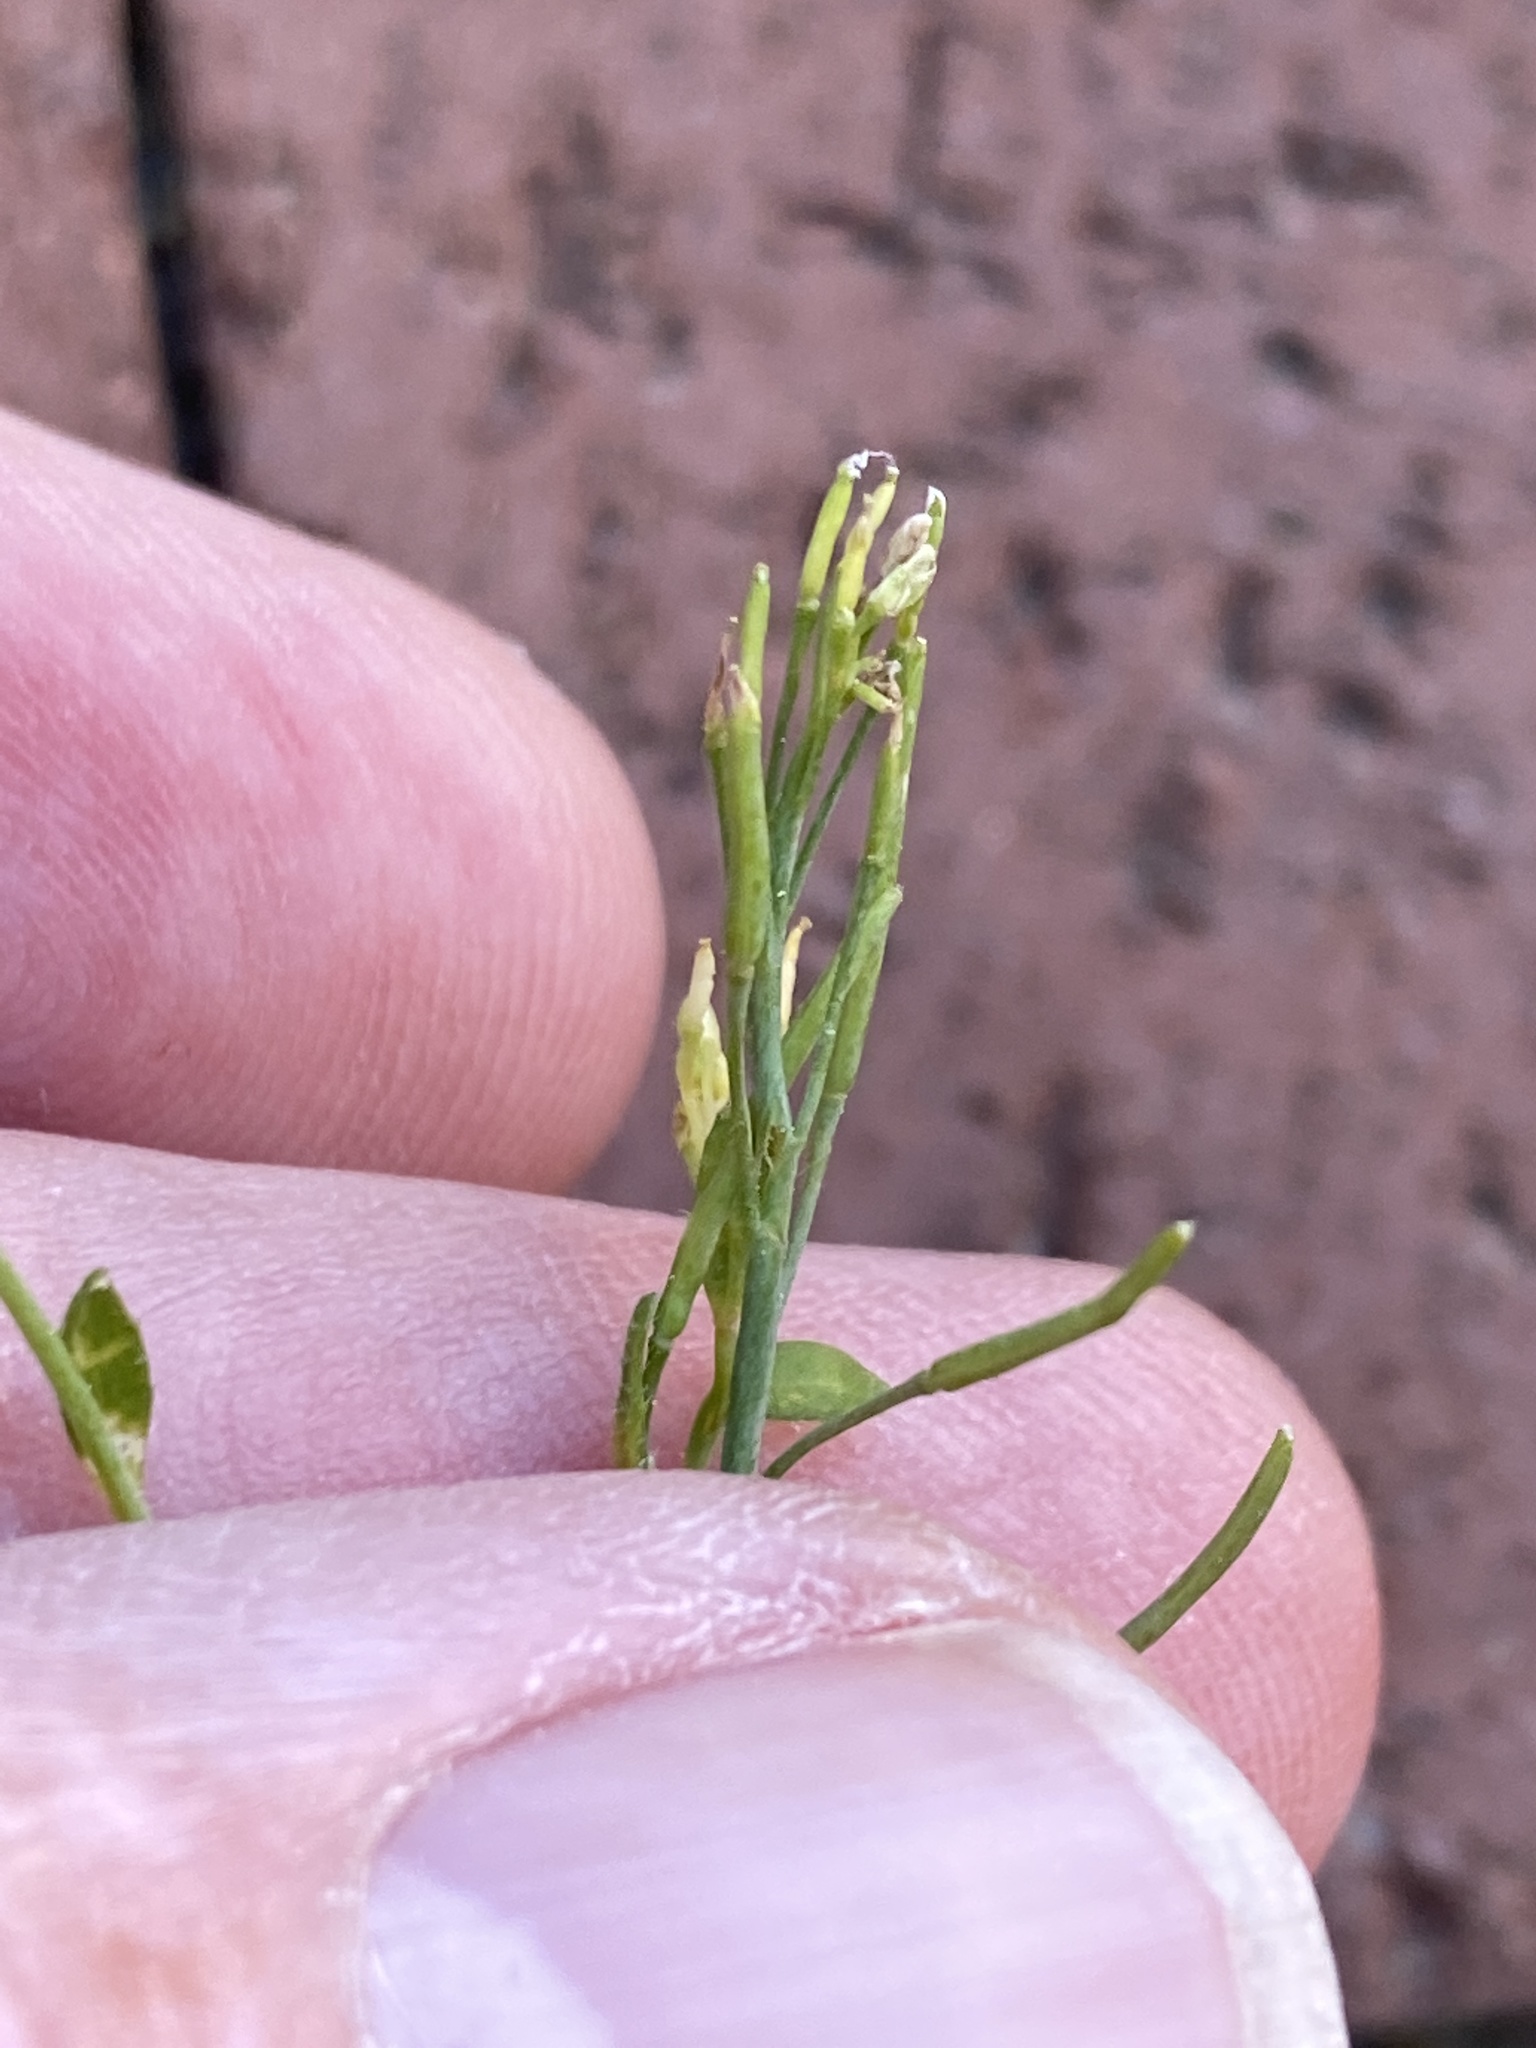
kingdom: Plantae
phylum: Tracheophyta
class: Magnoliopsida
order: Brassicales
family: Brassicaceae
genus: Arabidopsis
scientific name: Arabidopsis thaliana
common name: Thale cress
